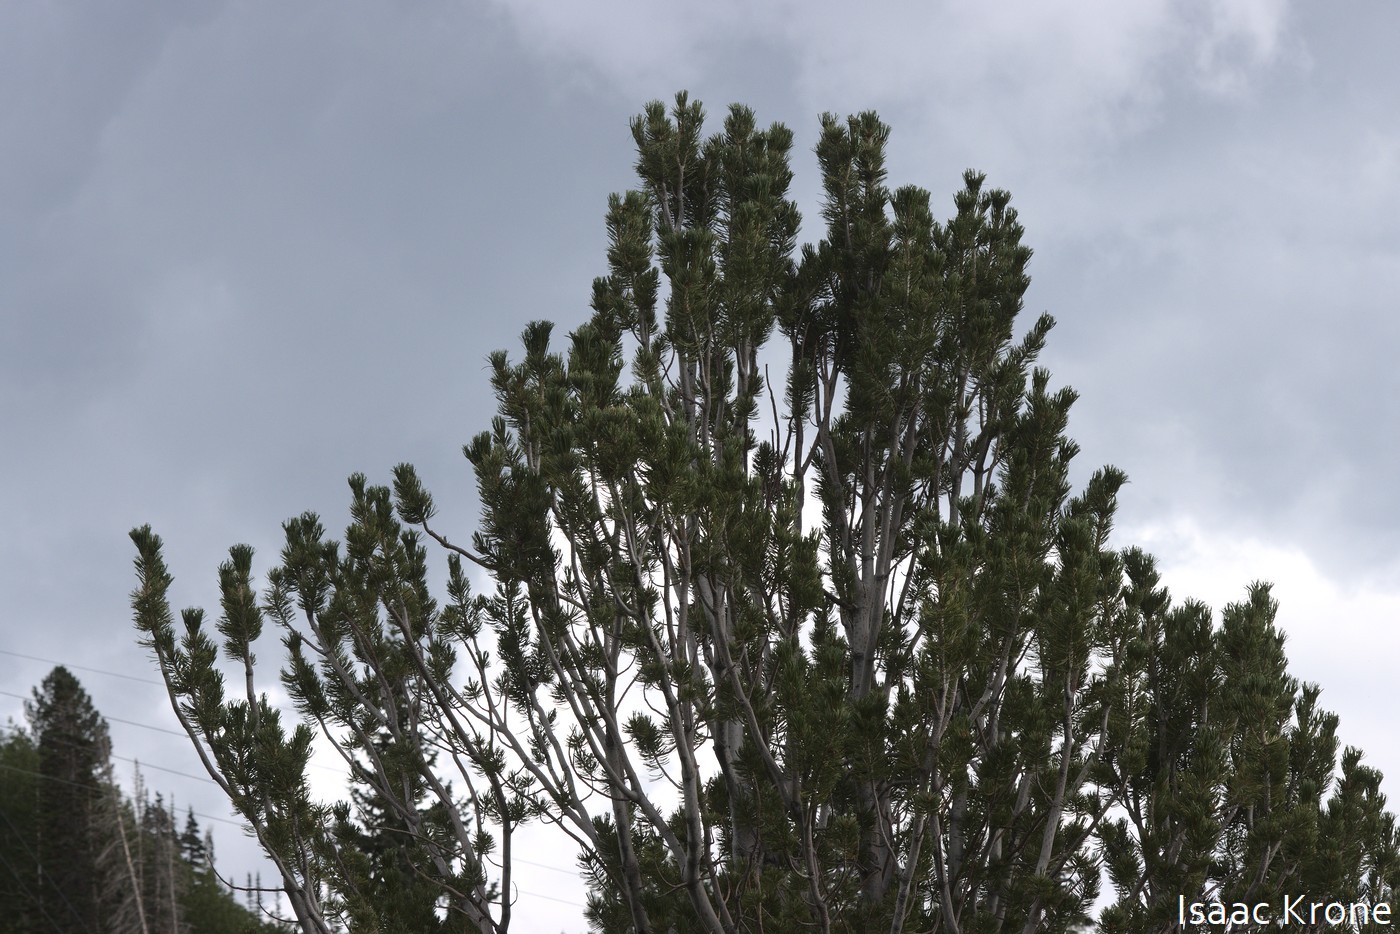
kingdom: Plantae
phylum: Tracheophyta
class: Pinopsida
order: Pinales
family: Pinaceae
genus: Pinus
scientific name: Pinus flexilis
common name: Limber pine
